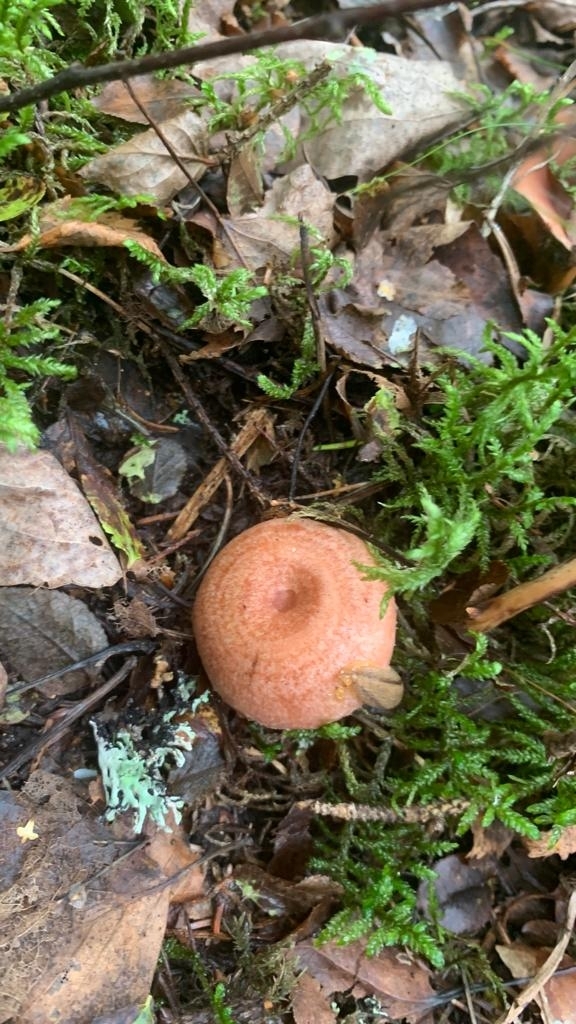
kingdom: Fungi
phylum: Basidiomycota
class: Agaricomycetes
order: Russulales
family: Russulaceae
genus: Lactarius
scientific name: Lactarius torminosus
